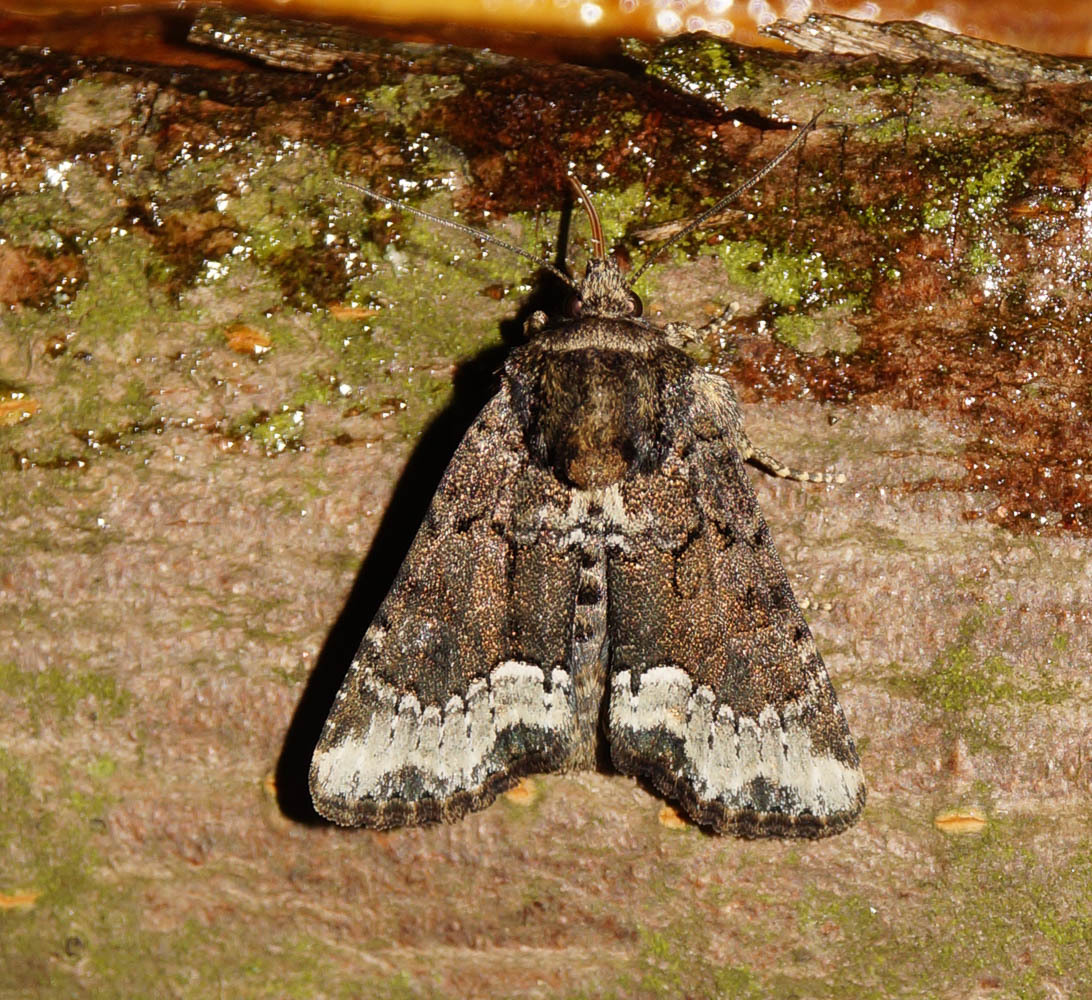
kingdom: Animalia
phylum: Arthropoda
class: Insecta
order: Lepidoptera
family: Noctuidae
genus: Oligia
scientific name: Oligia strigilis
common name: Marbled minor
